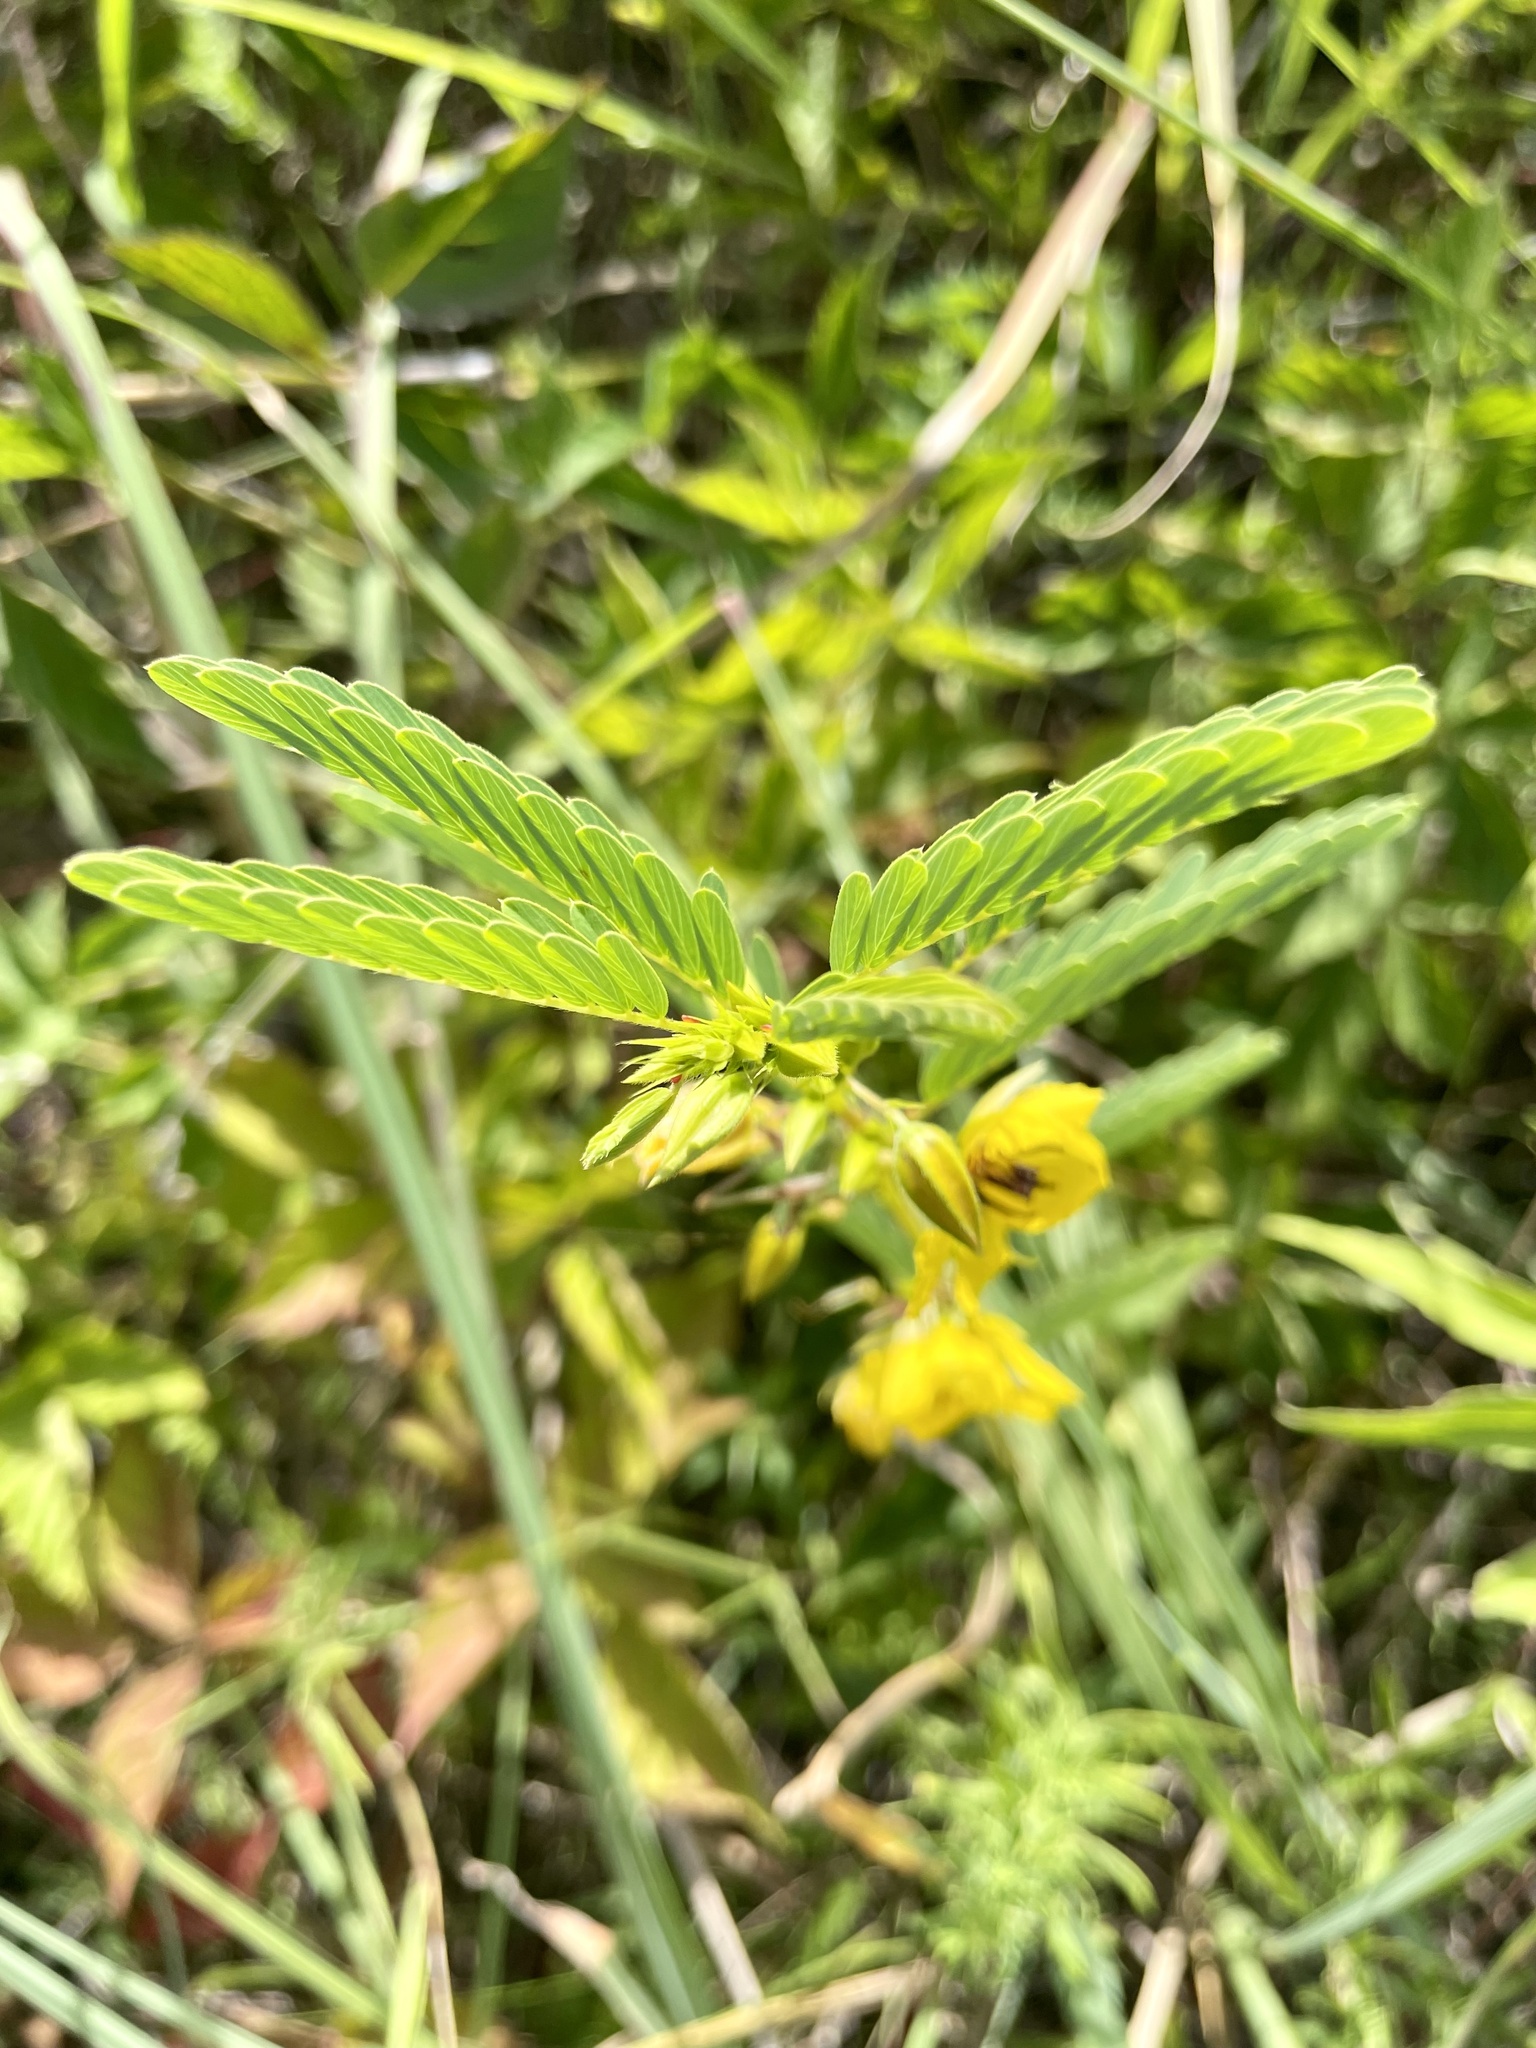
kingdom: Plantae
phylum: Tracheophyta
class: Magnoliopsida
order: Fabales
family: Fabaceae
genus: Chamaecrista
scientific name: Chamaecrista fasciculata
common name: Golden cassia
